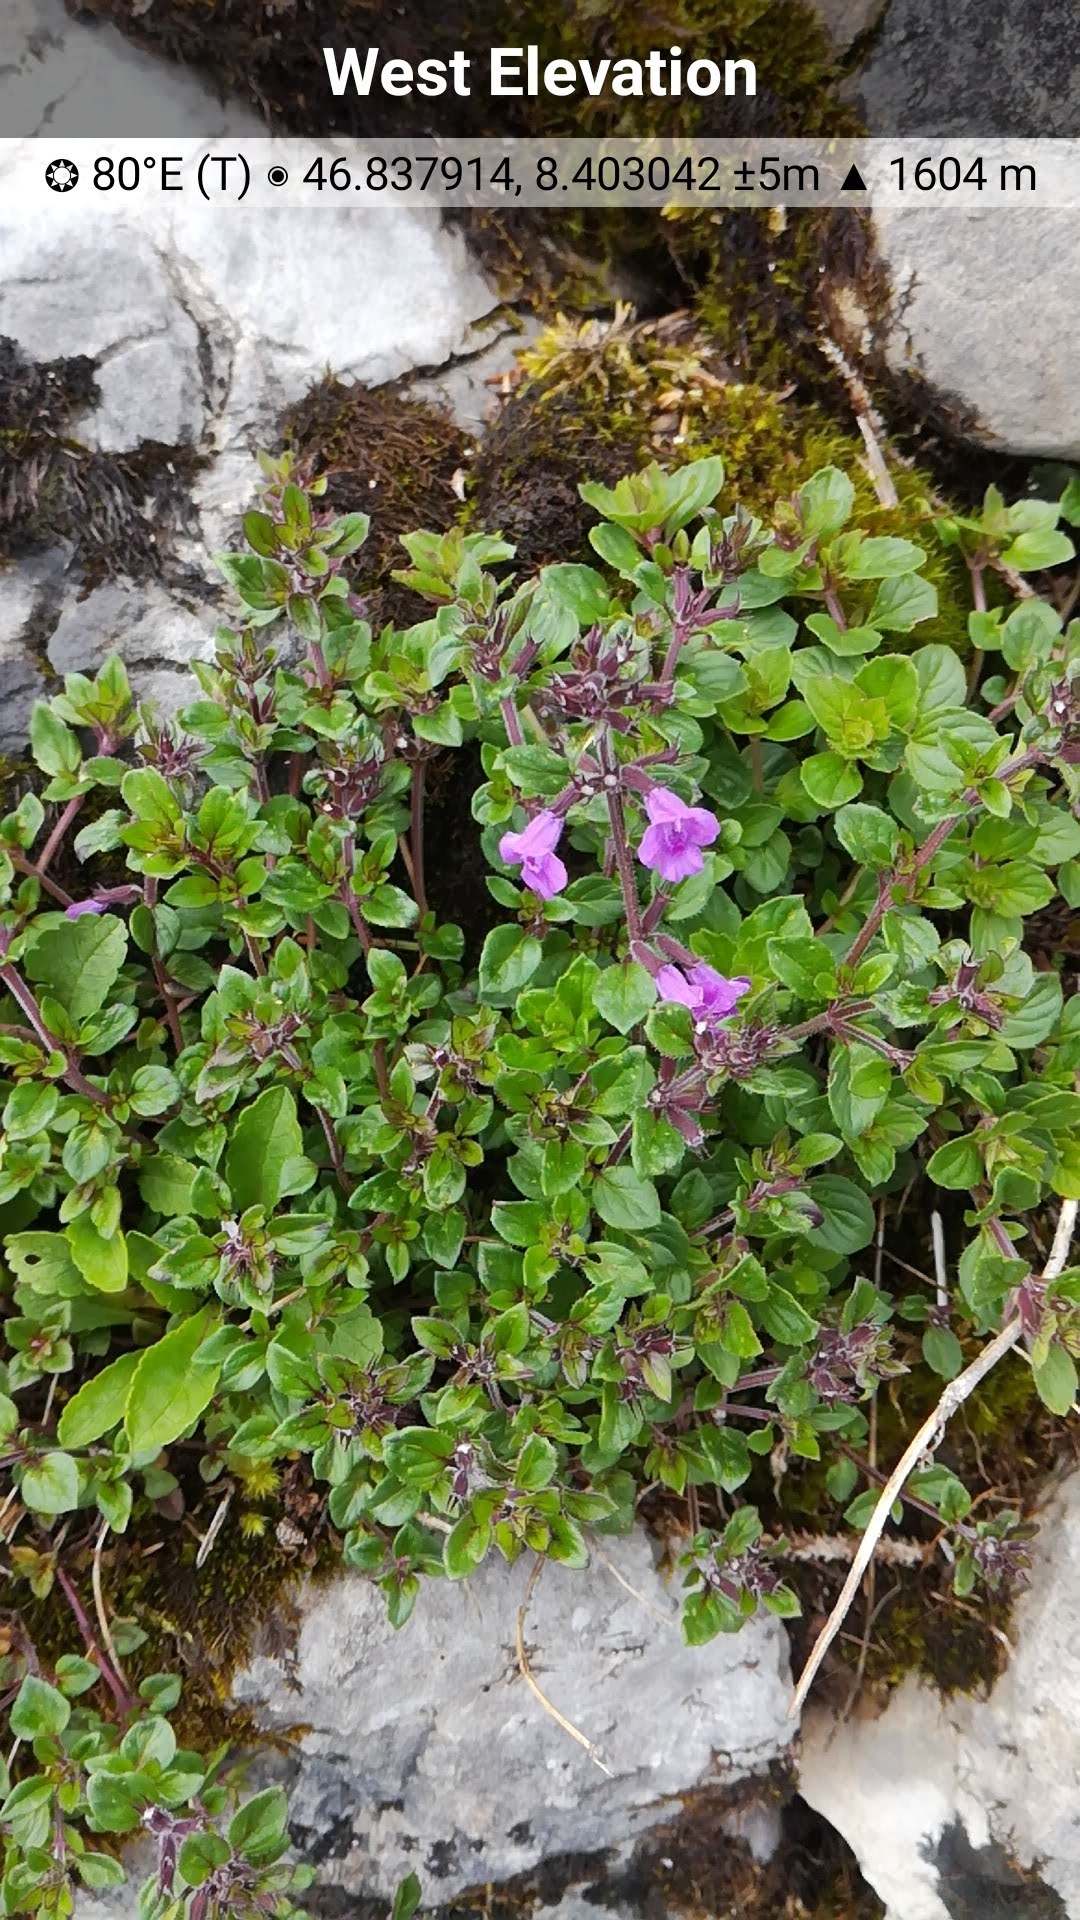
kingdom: Plantae
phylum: Tracheophyta
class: Magnoliopsida
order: Lamiales
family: Lamiaceae
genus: Clinopodium
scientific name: Clinopodium alpinum
